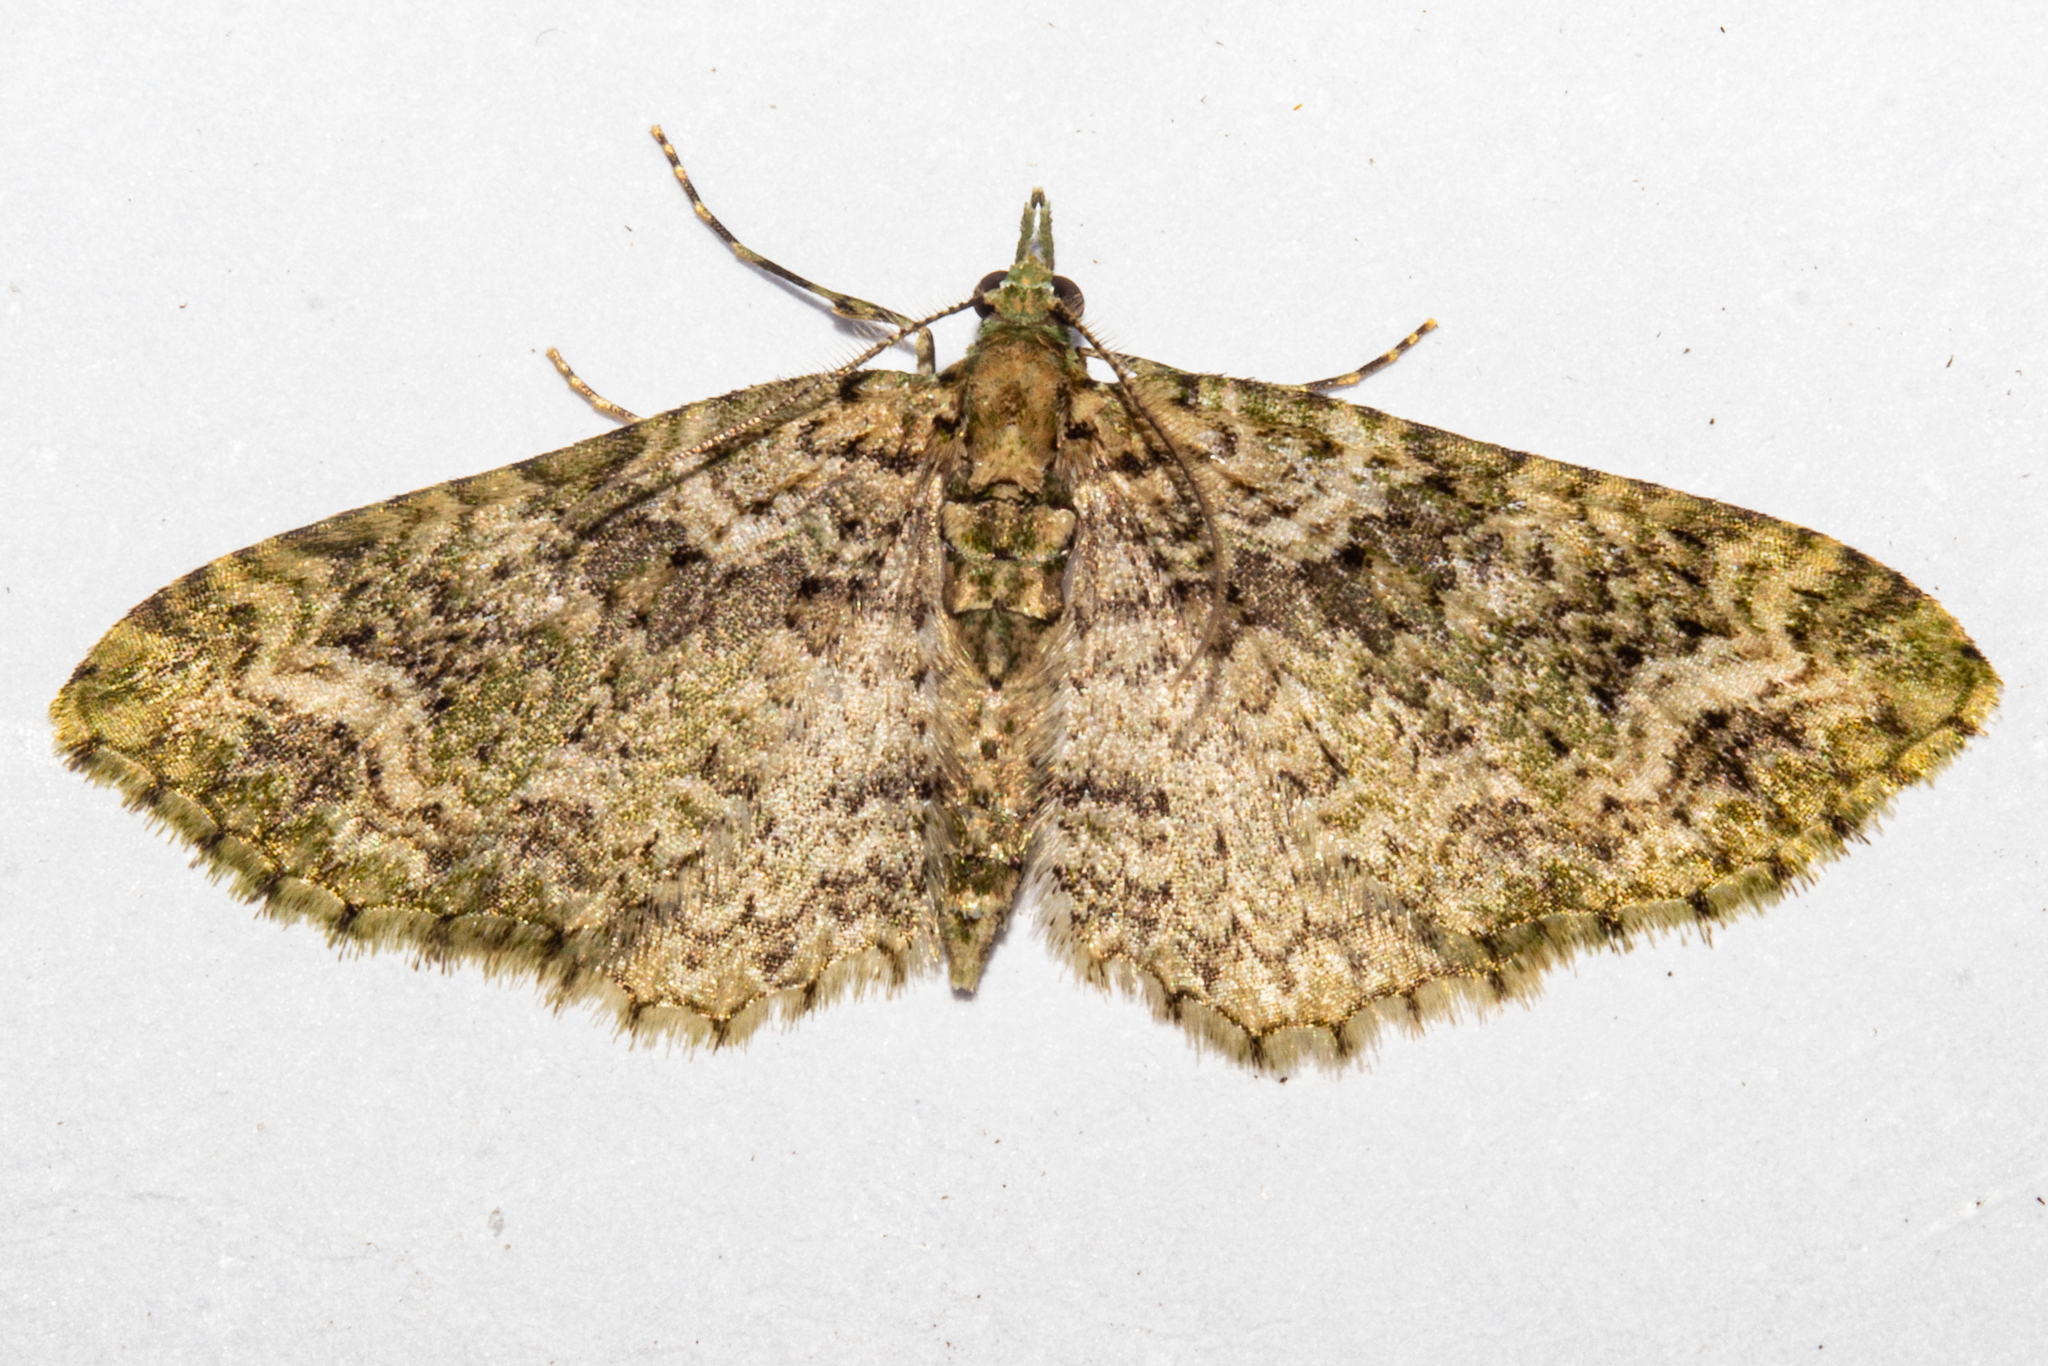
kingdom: Animalia
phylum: Arthropoda
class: Insecta
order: Lepidoptera
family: Geometridae
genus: Pasiphila
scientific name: Pasiphila muscosata
